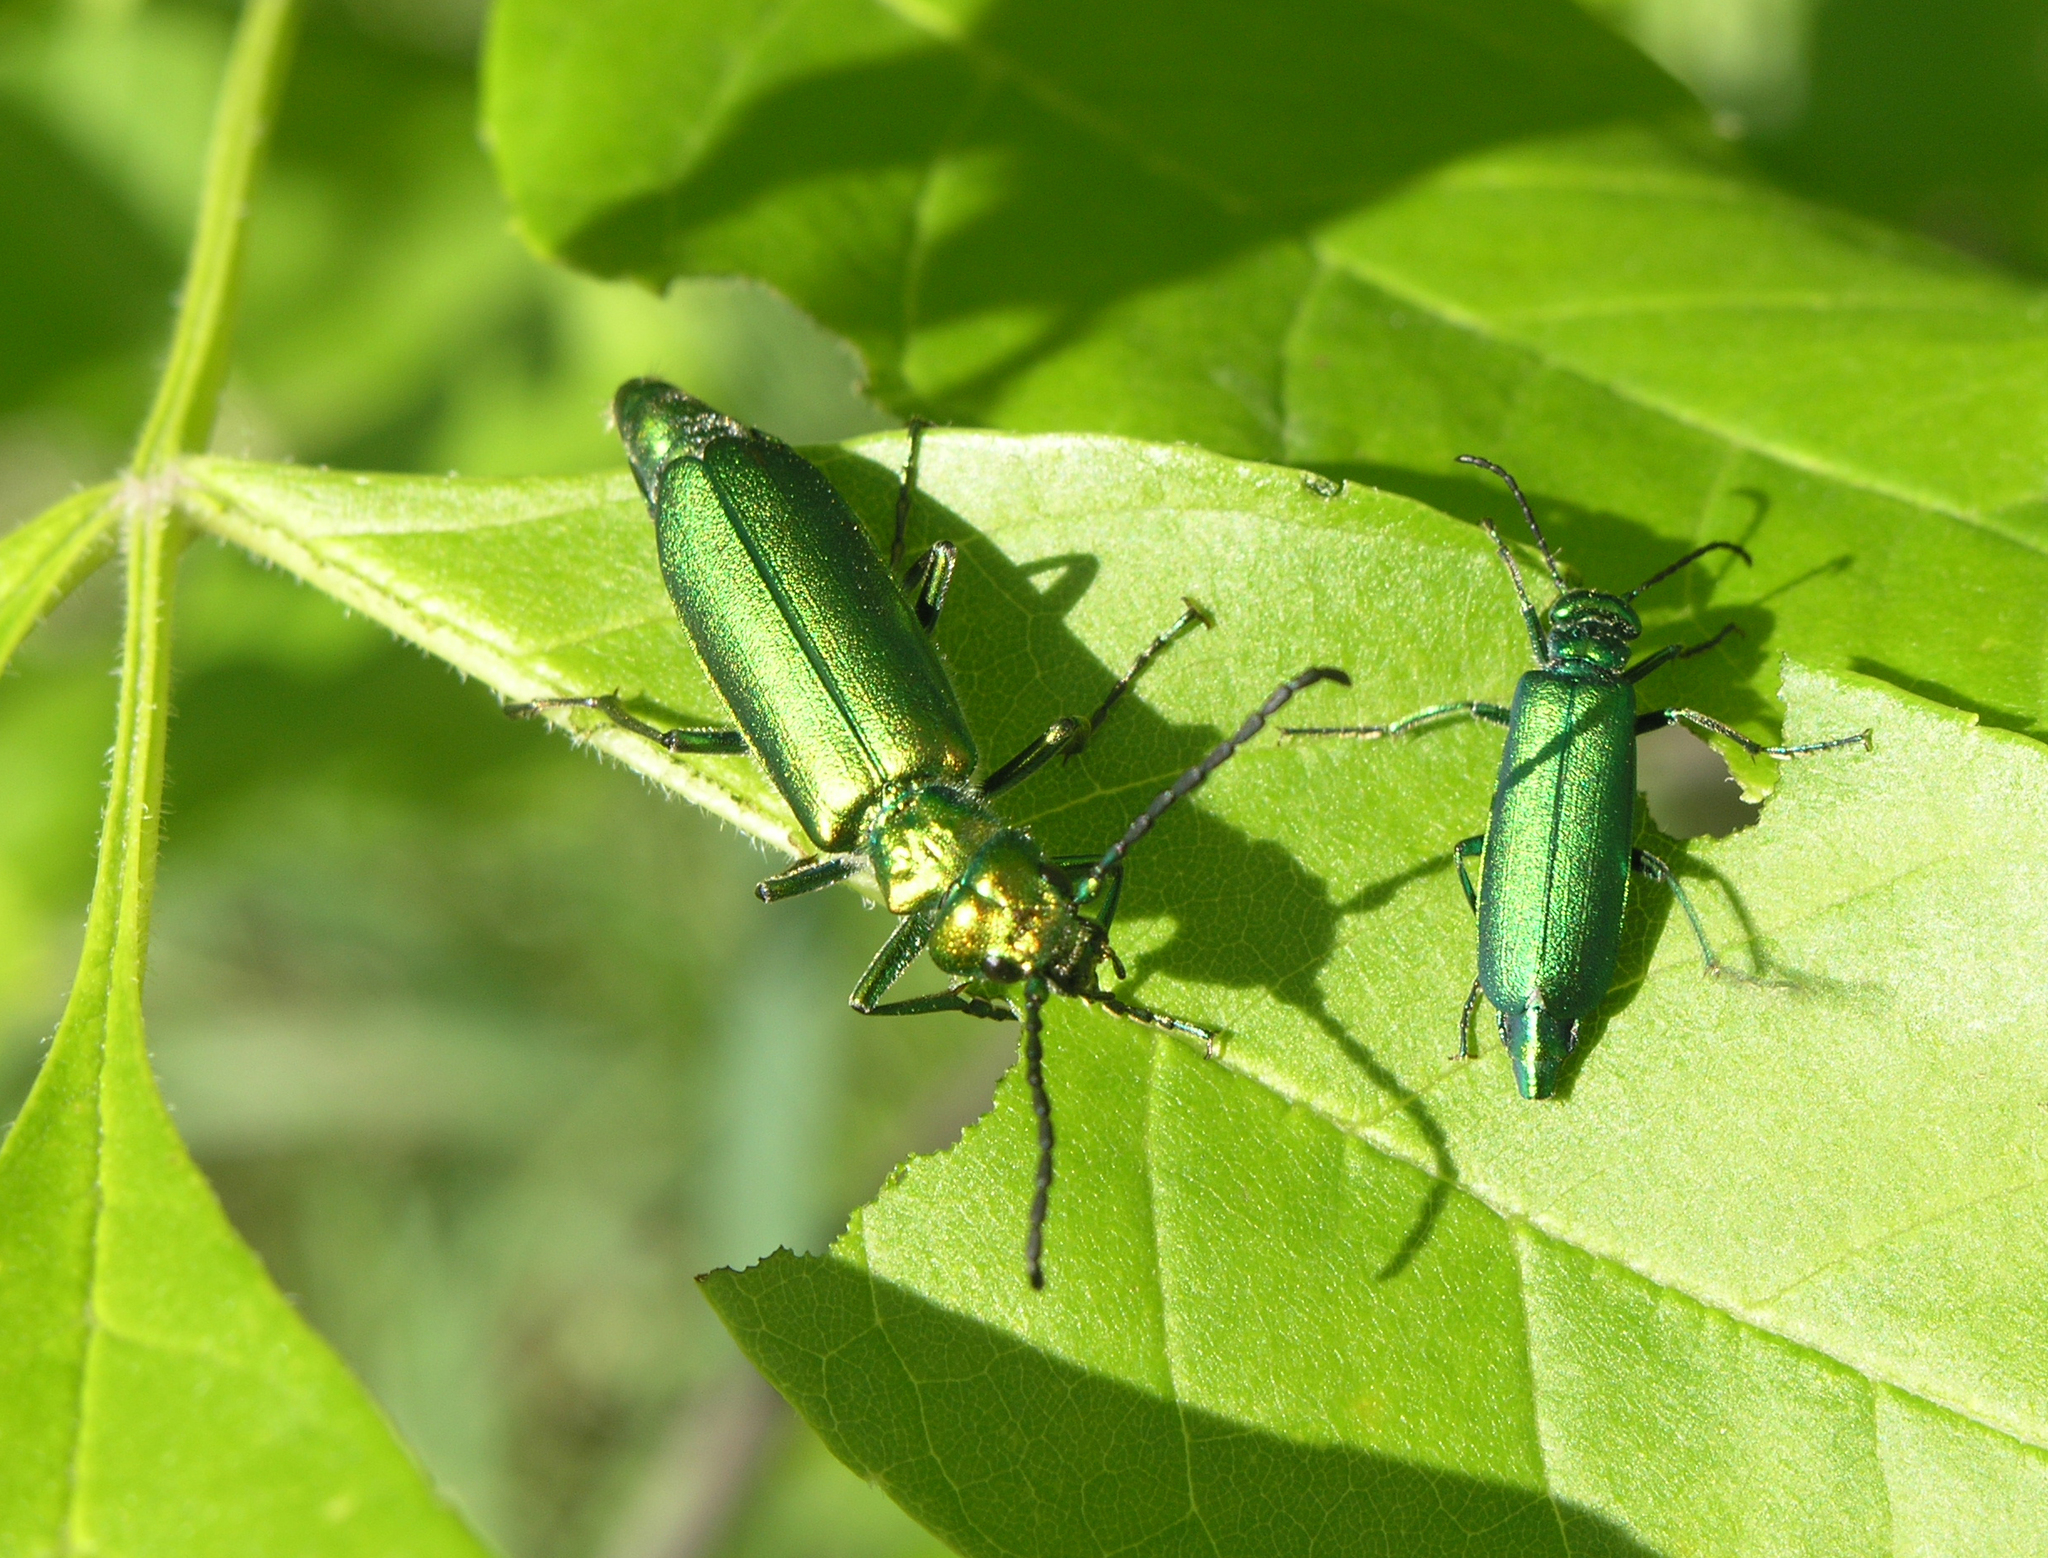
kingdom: Animalia
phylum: Arthropoda
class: Insecta
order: Coleoptera
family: Meloidae
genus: Lytta
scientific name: Lytta vesicatoria
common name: Spanish fly
